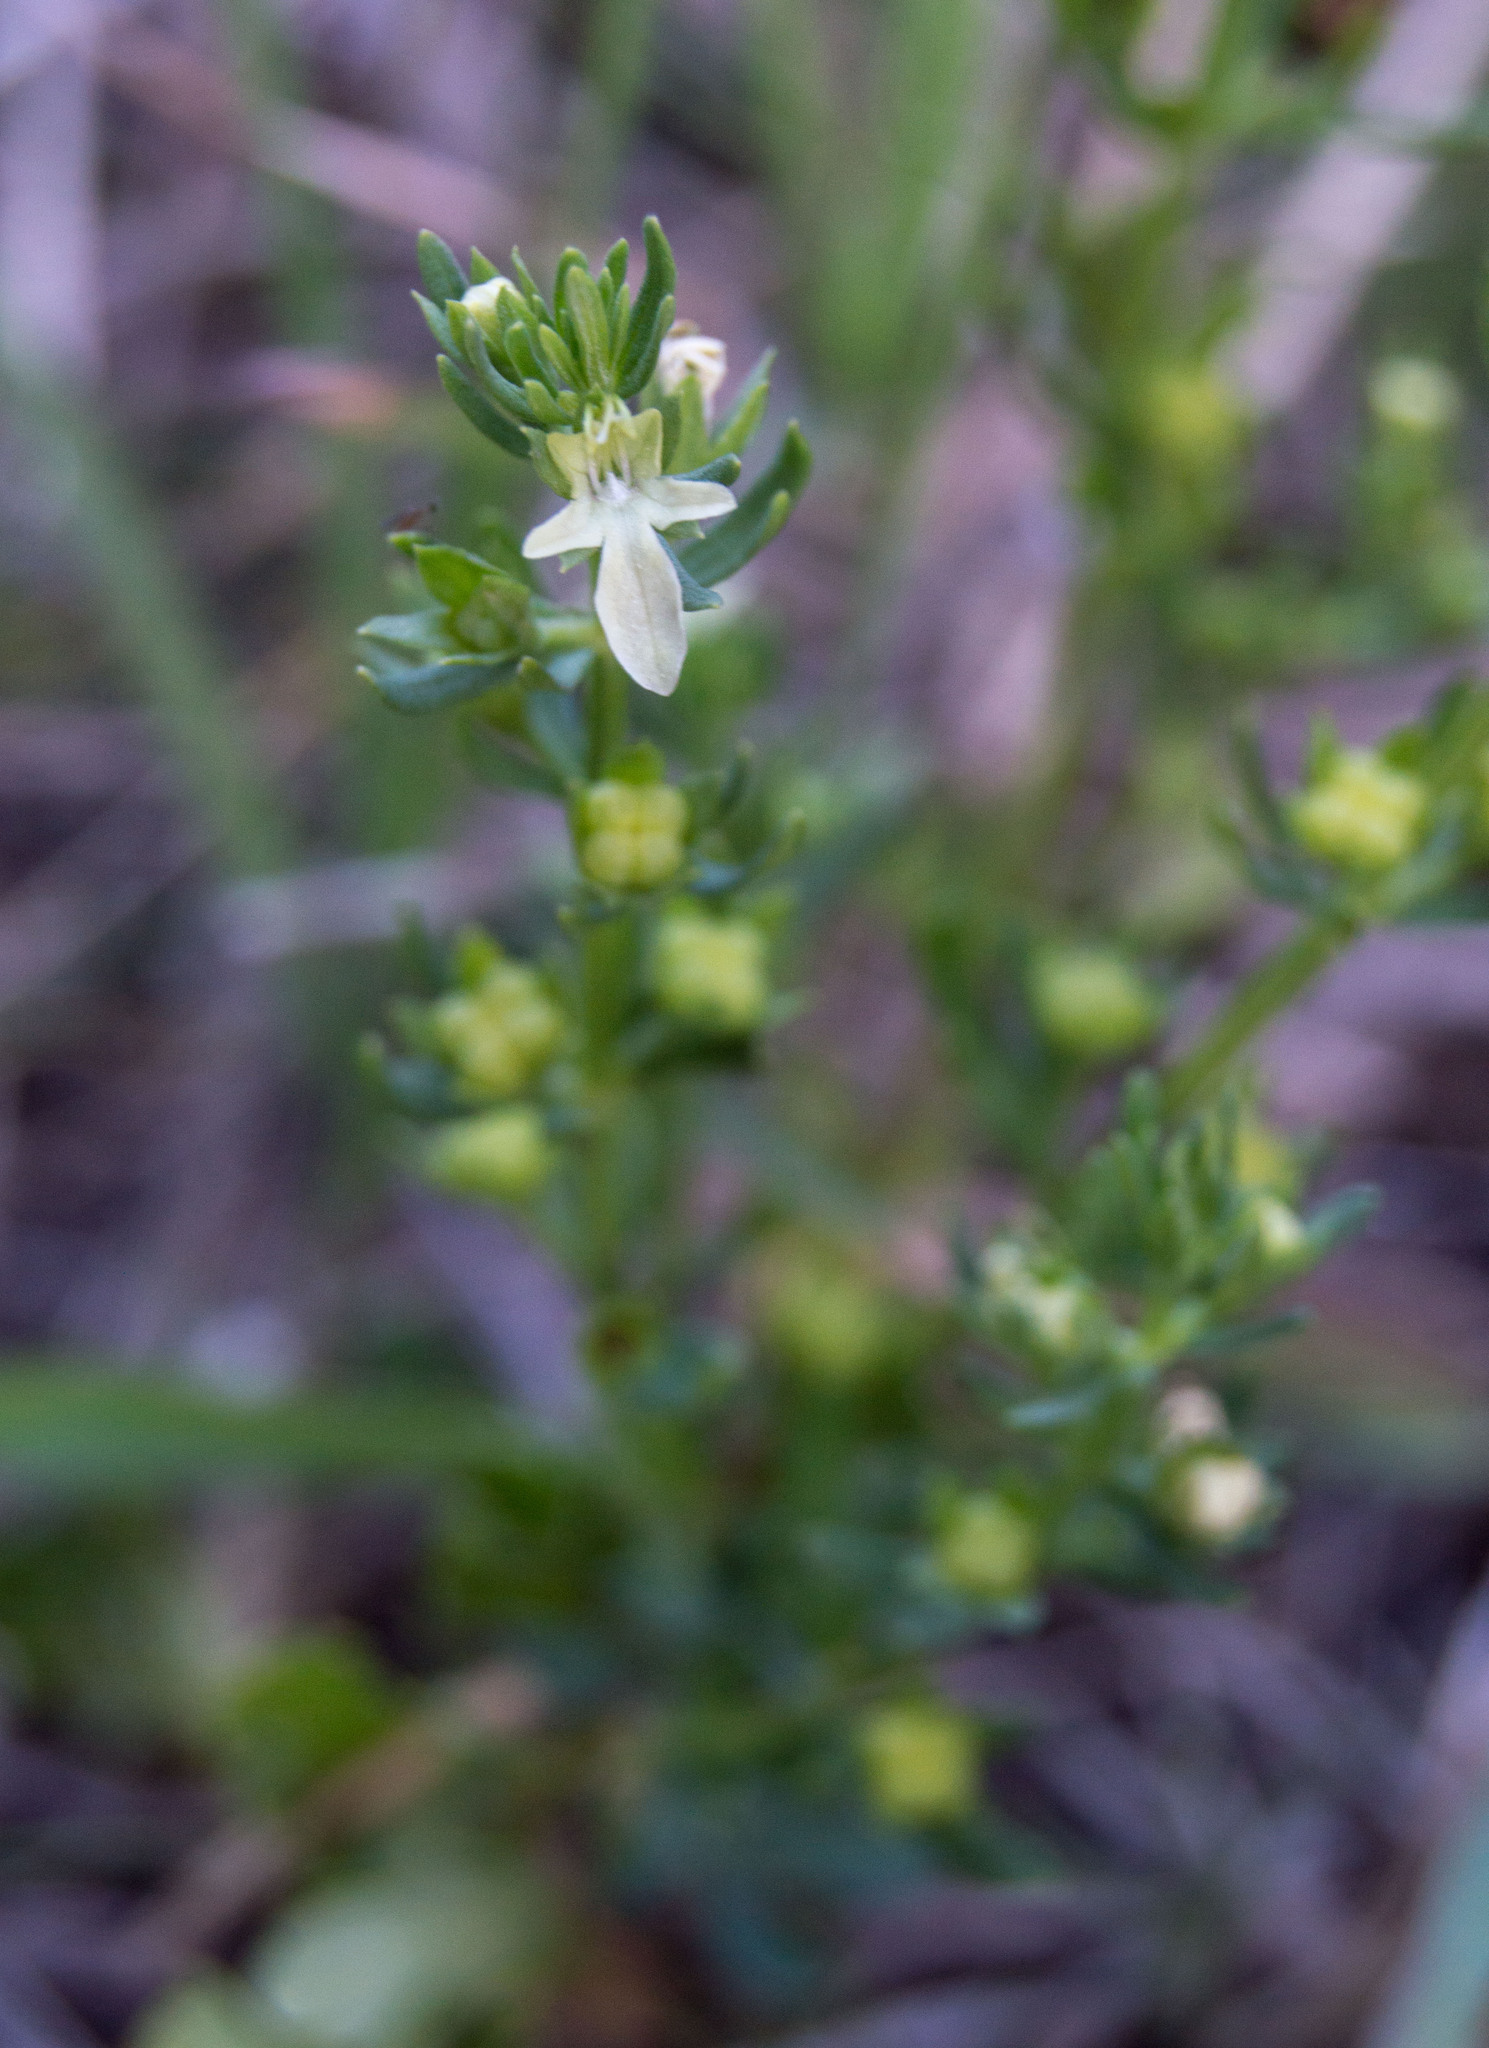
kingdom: Plantae
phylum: Tracheophyta
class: Magnoliopsida
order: Lamiales
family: Lamiaceae
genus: Teucrium
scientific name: Teucrium cubense
